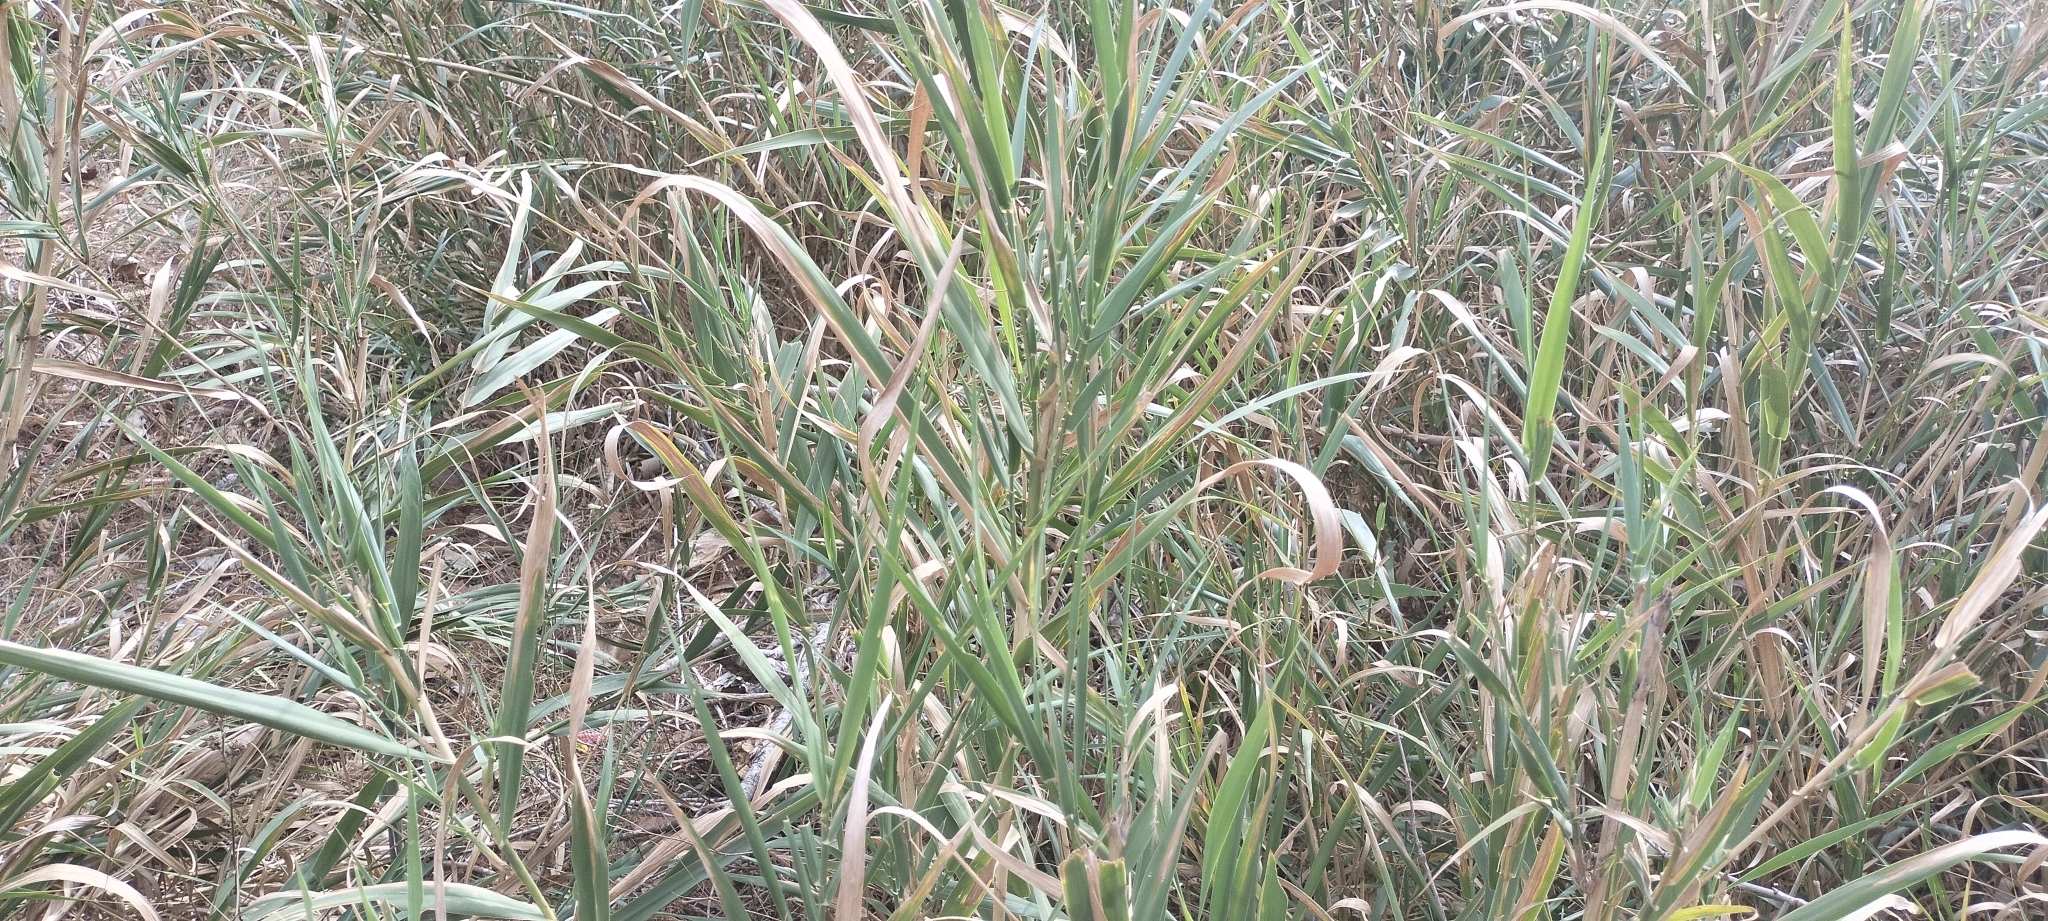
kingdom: Plantae
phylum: Tracheophyta
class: Liliopsida
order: Poales
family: Poaceae
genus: Arundo
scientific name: Arundo donax
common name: Giant reed
